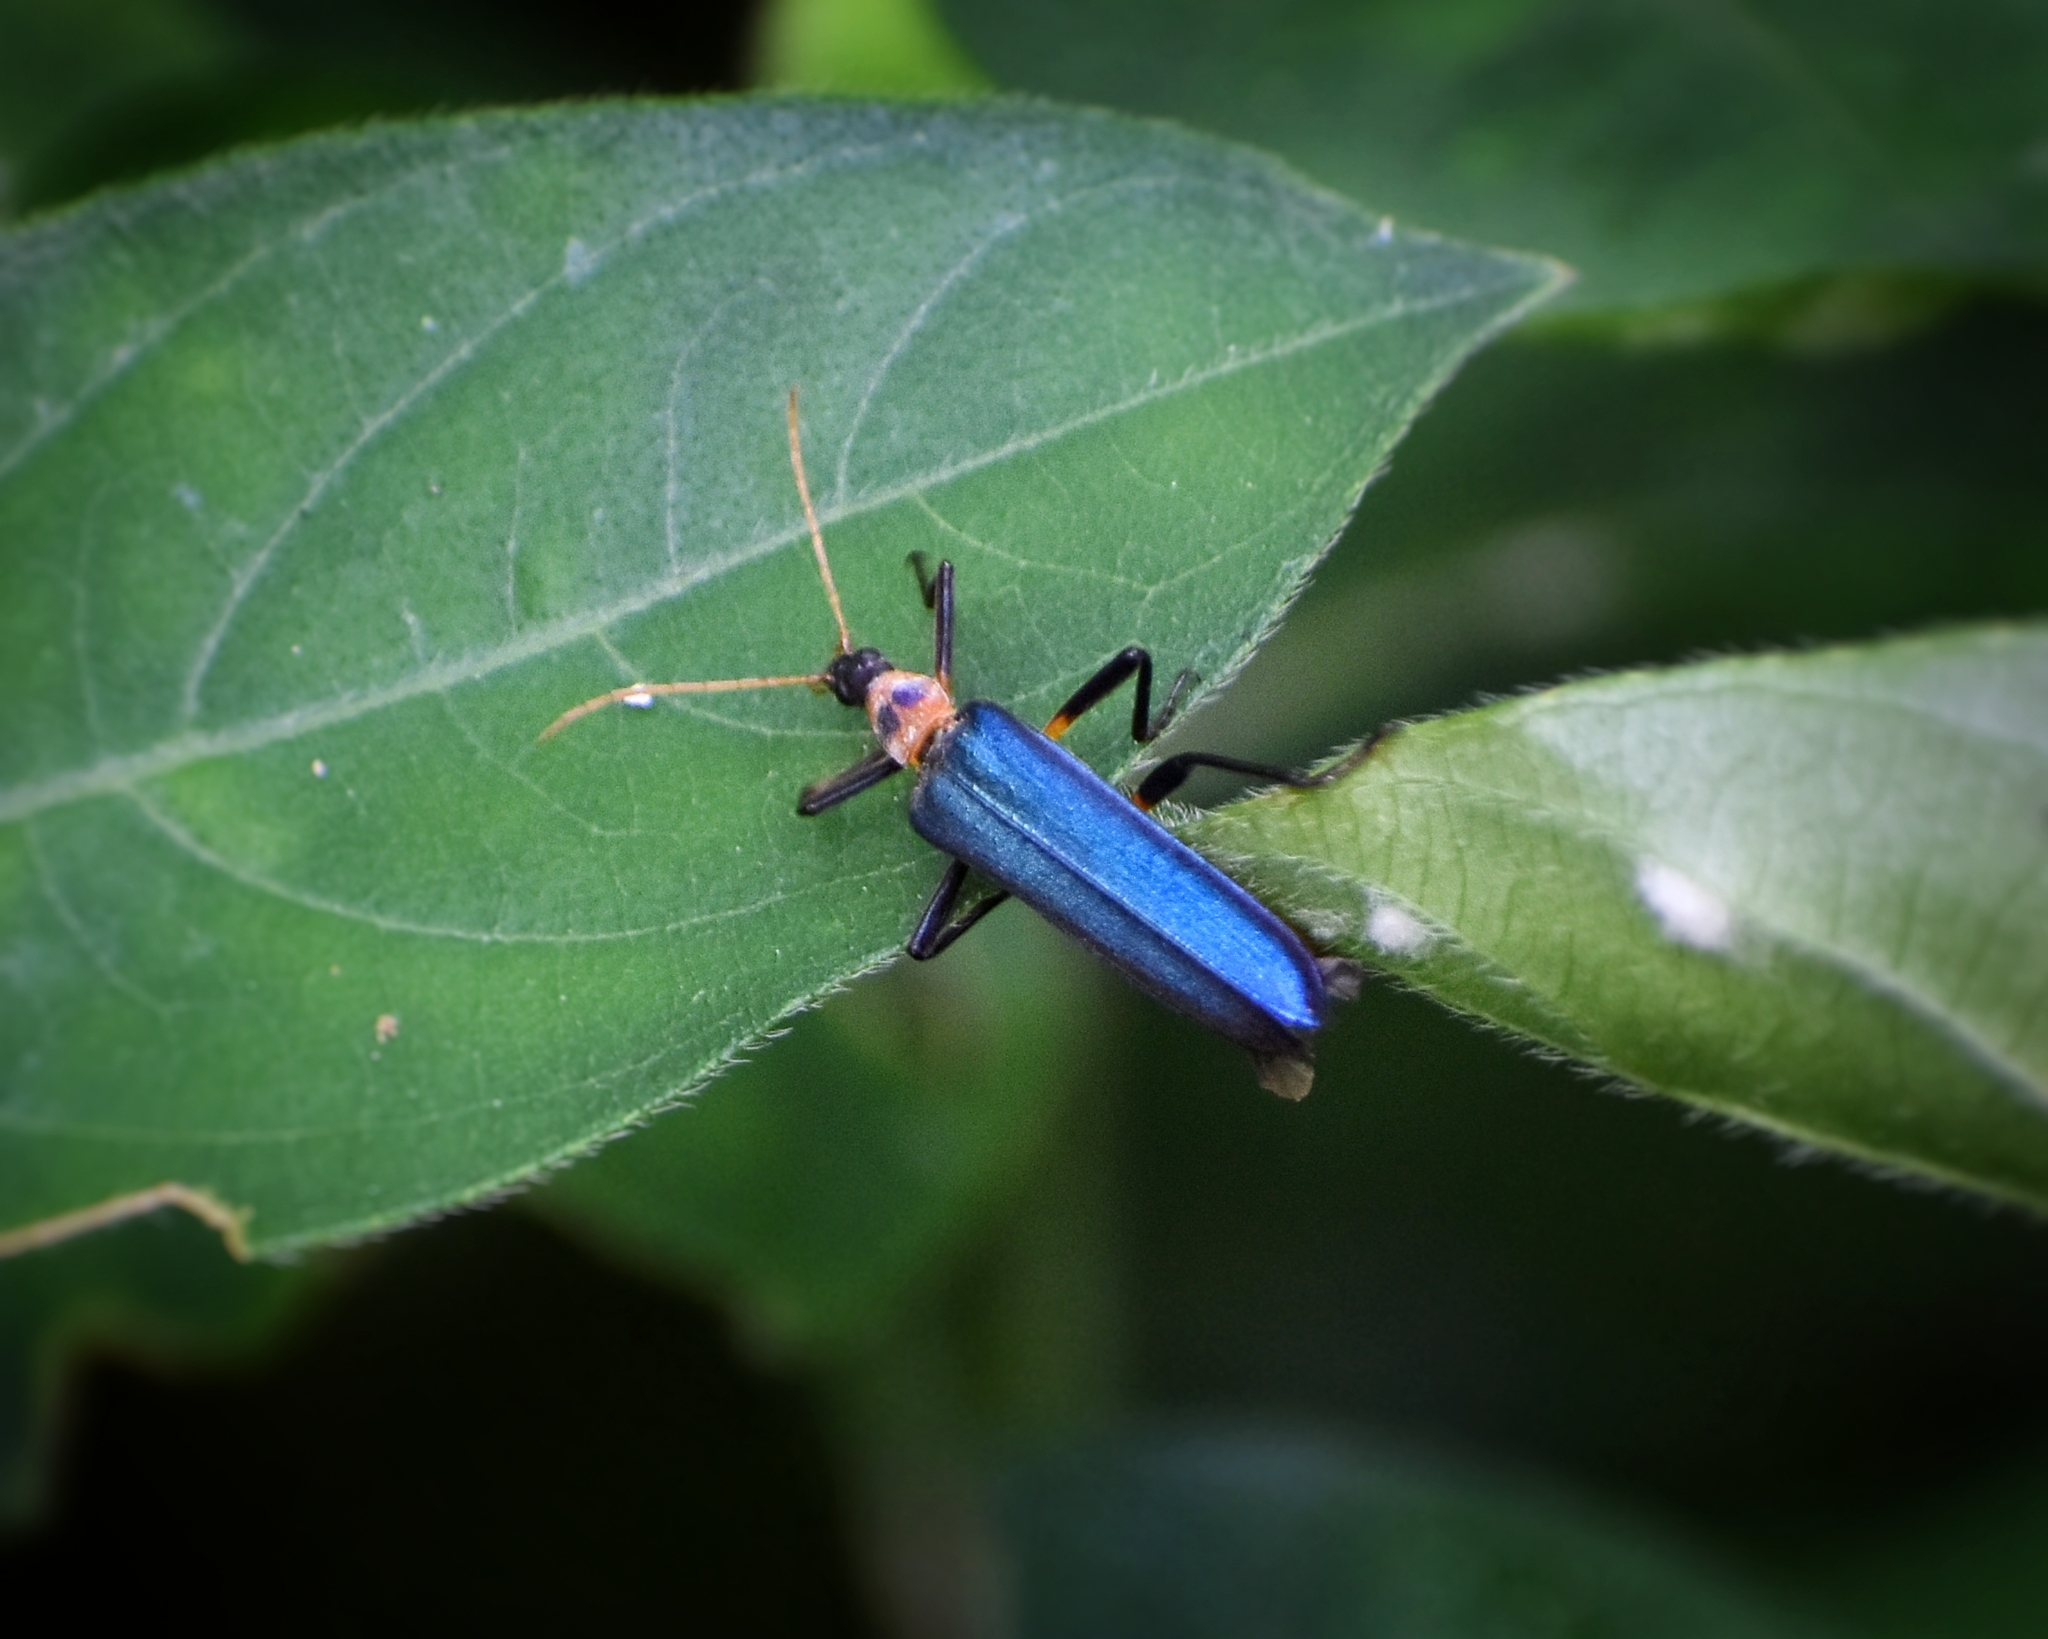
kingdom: Animalia
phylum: Arthropoda
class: Insecta
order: Coleoptera
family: Prionoceridae
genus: Idgia
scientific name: Idgia
